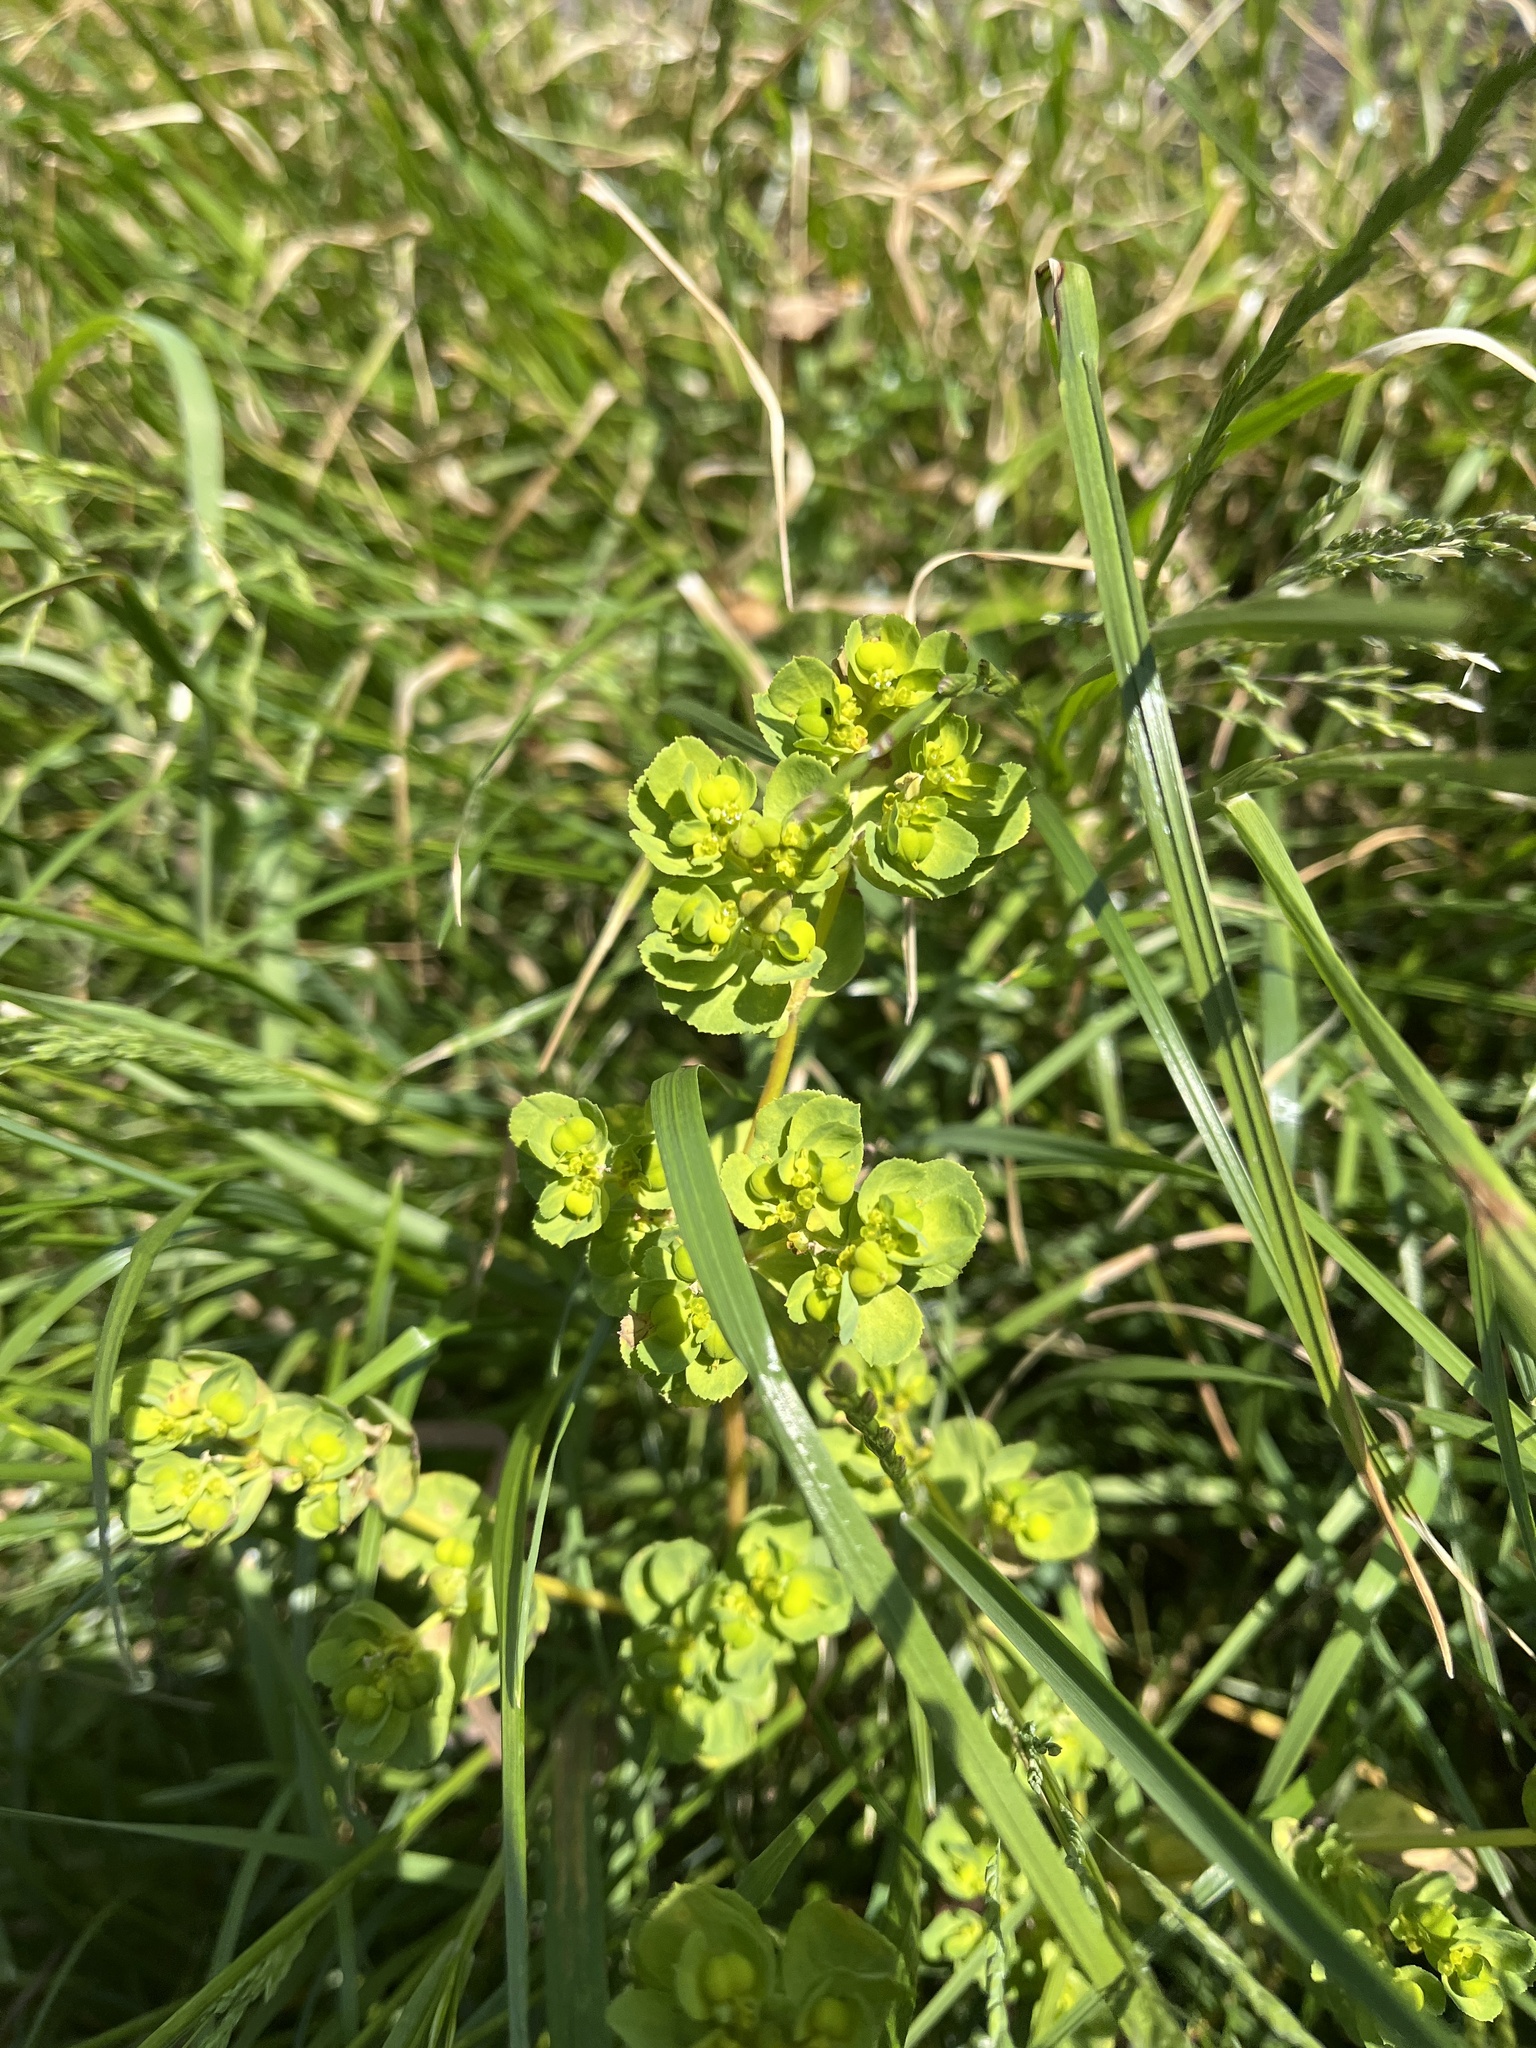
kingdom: Plantae
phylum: Tracheophyta
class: Magnoliopsida
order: Malpighiales
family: Euphorbiaceae
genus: Euphorbia
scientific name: Euphorbia helioscopia
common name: Sun spurge
